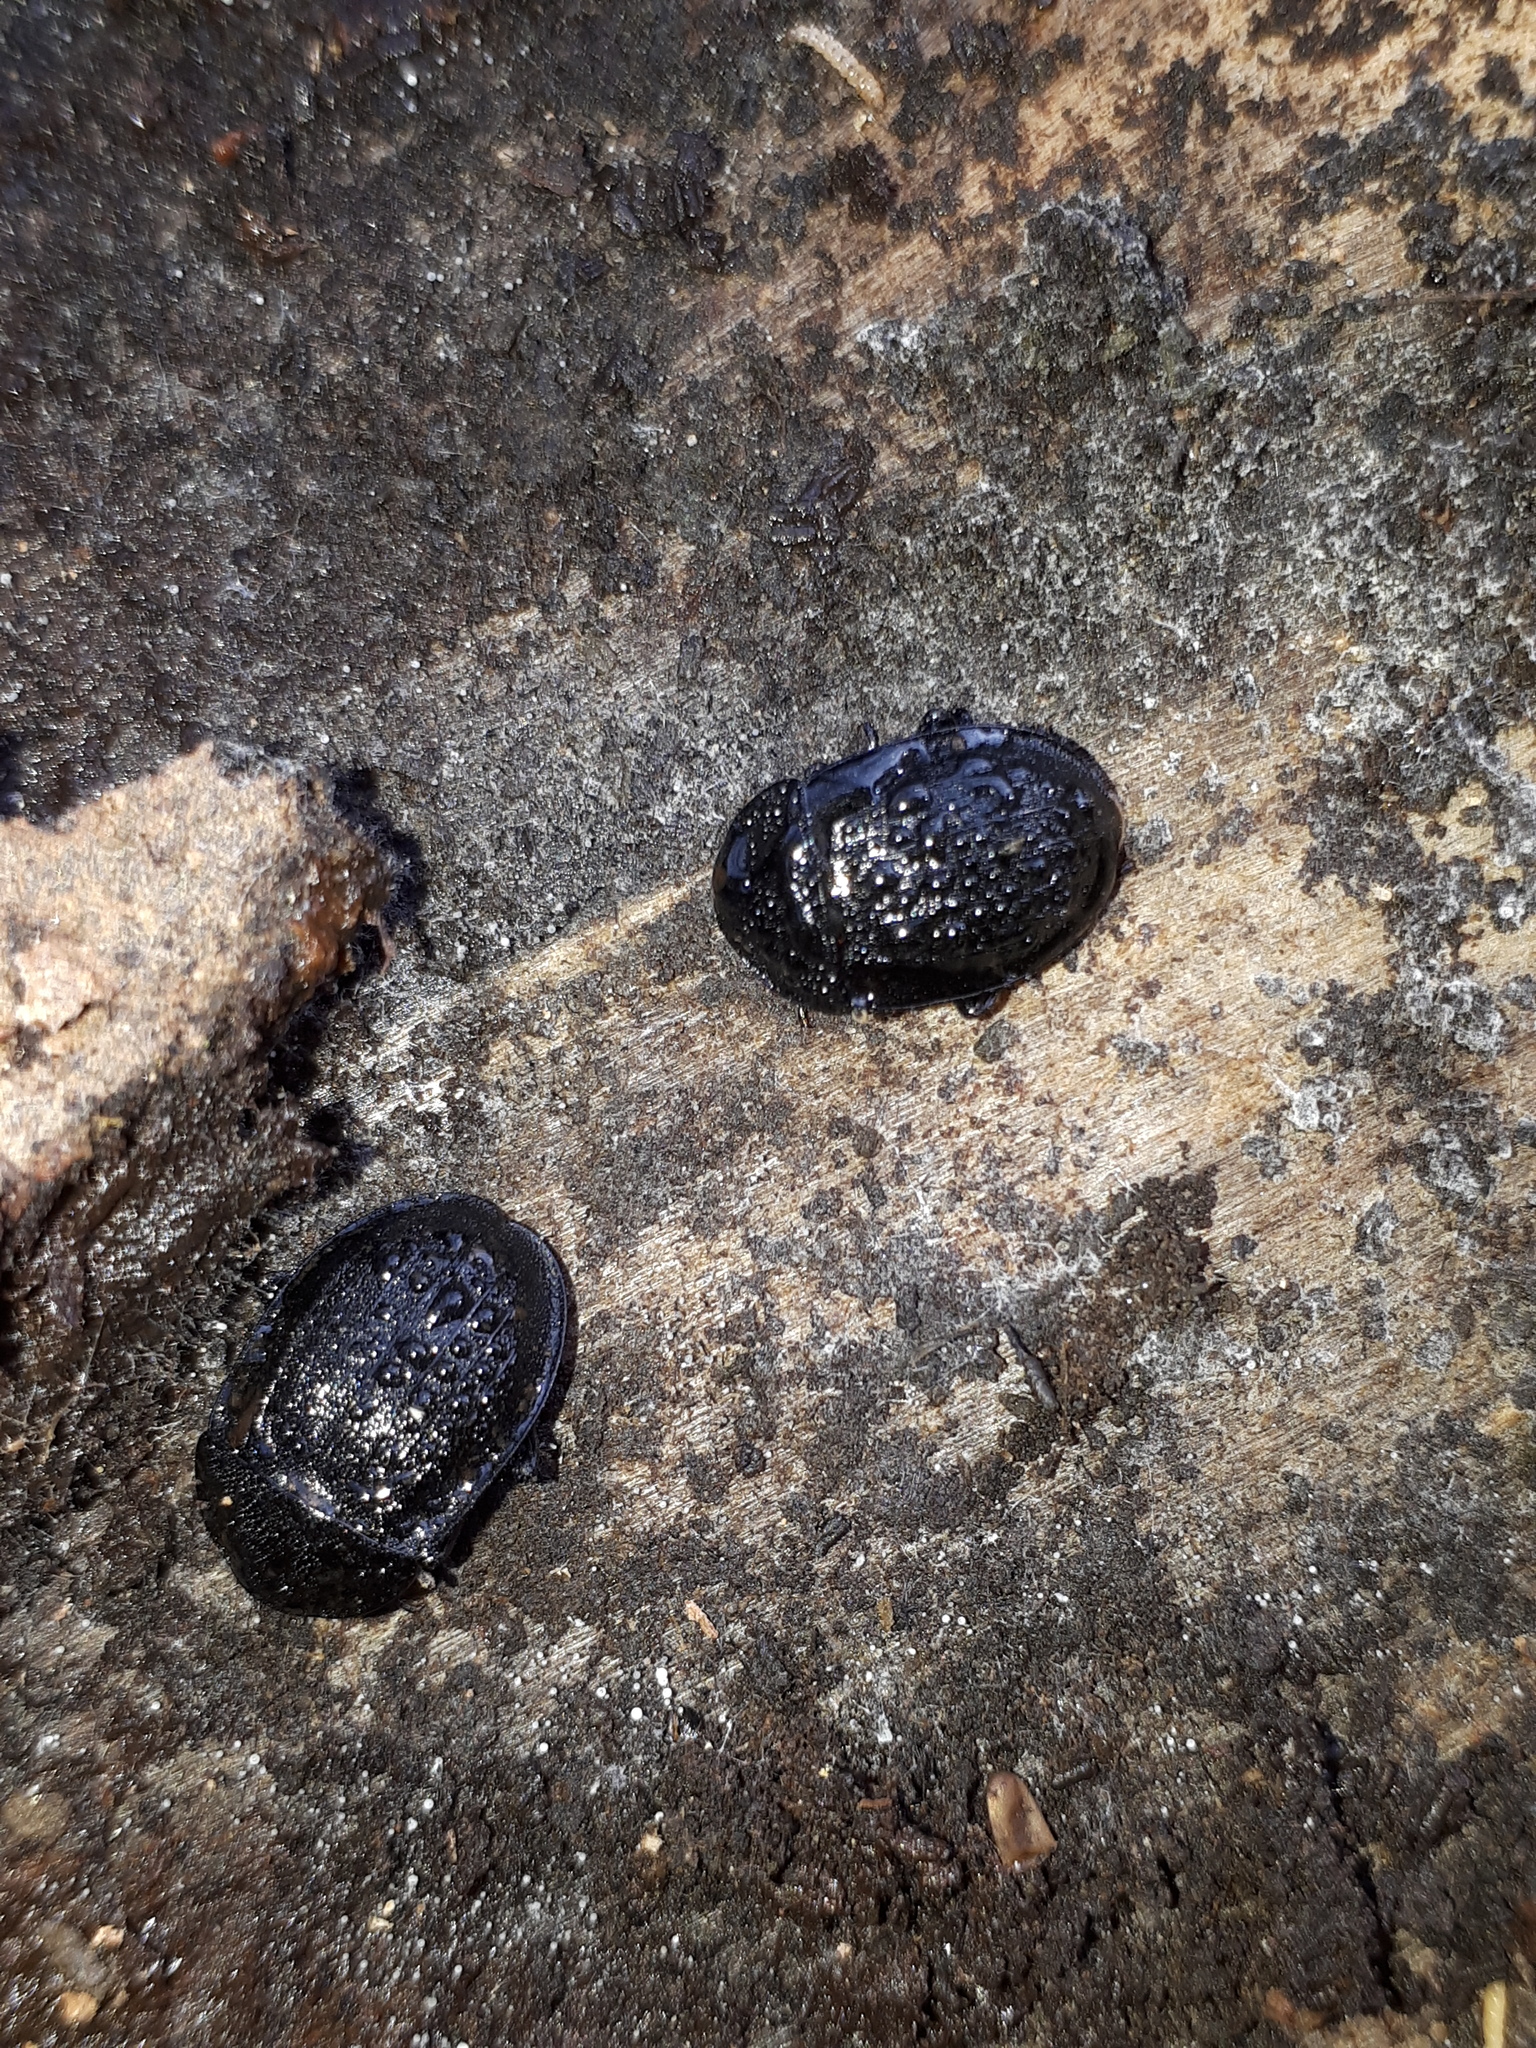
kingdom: Animalia
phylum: Arthropoda
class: Insecta
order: Coleoptera
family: Staphylinidae
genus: Silpha
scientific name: Silpha atrata
